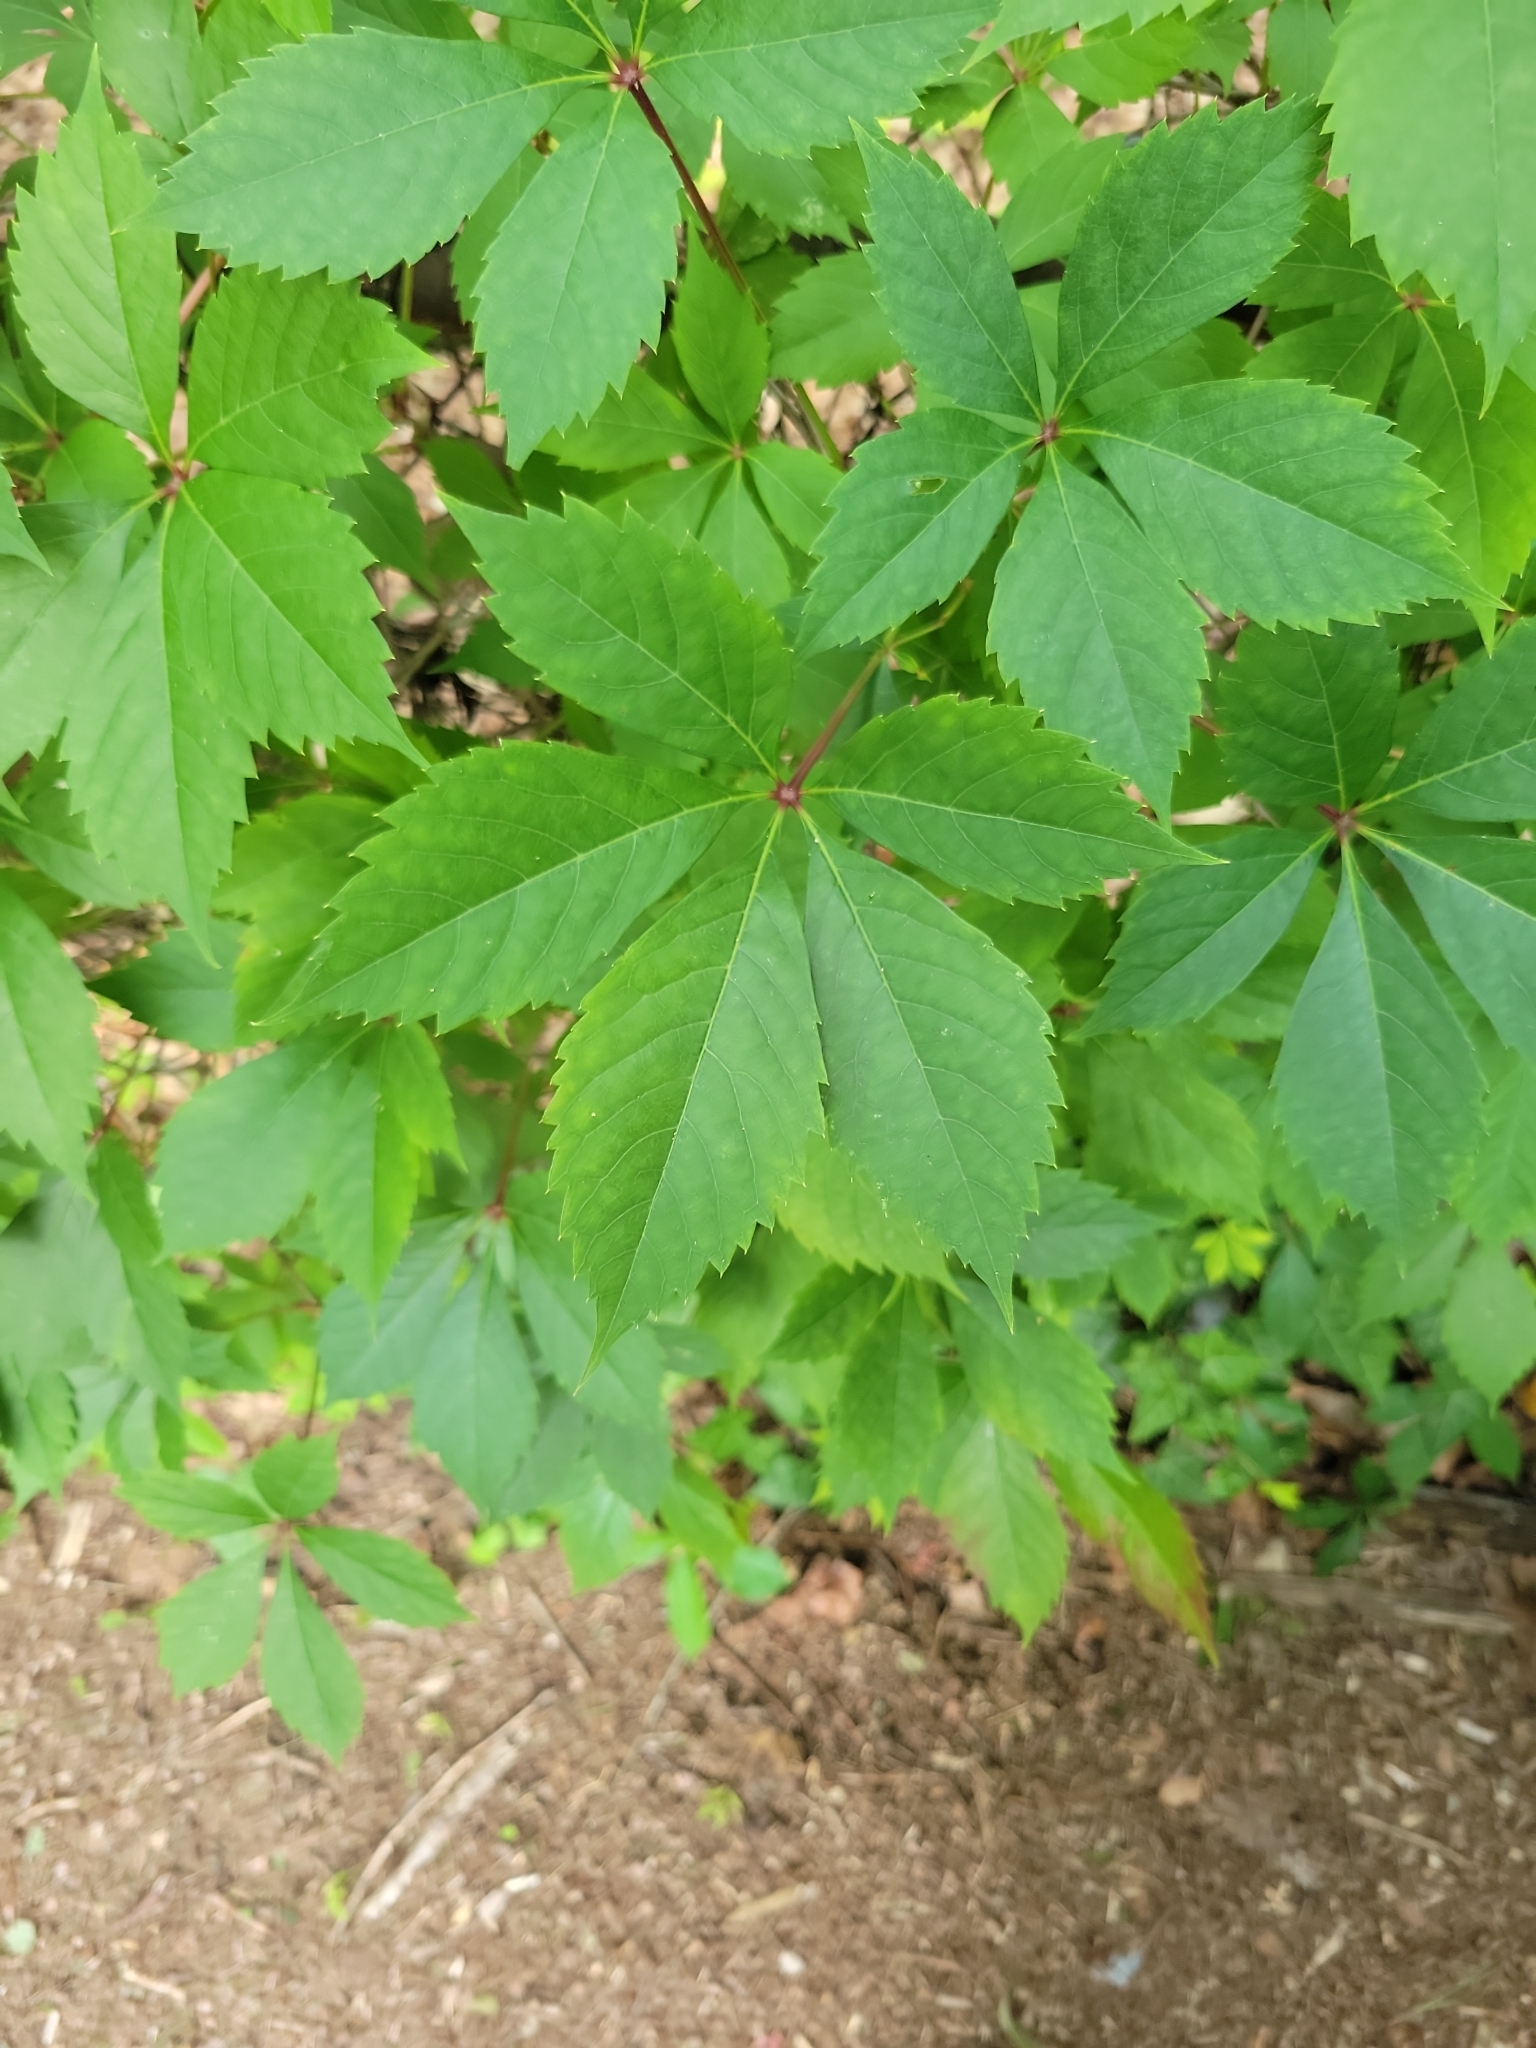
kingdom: Plantae
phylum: Tracheophyta
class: Magnoliopsida
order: Vitales
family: Vitaceae
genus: Parthenocissus
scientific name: Parthenocissus quinquefolia
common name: Virginia-creeper
